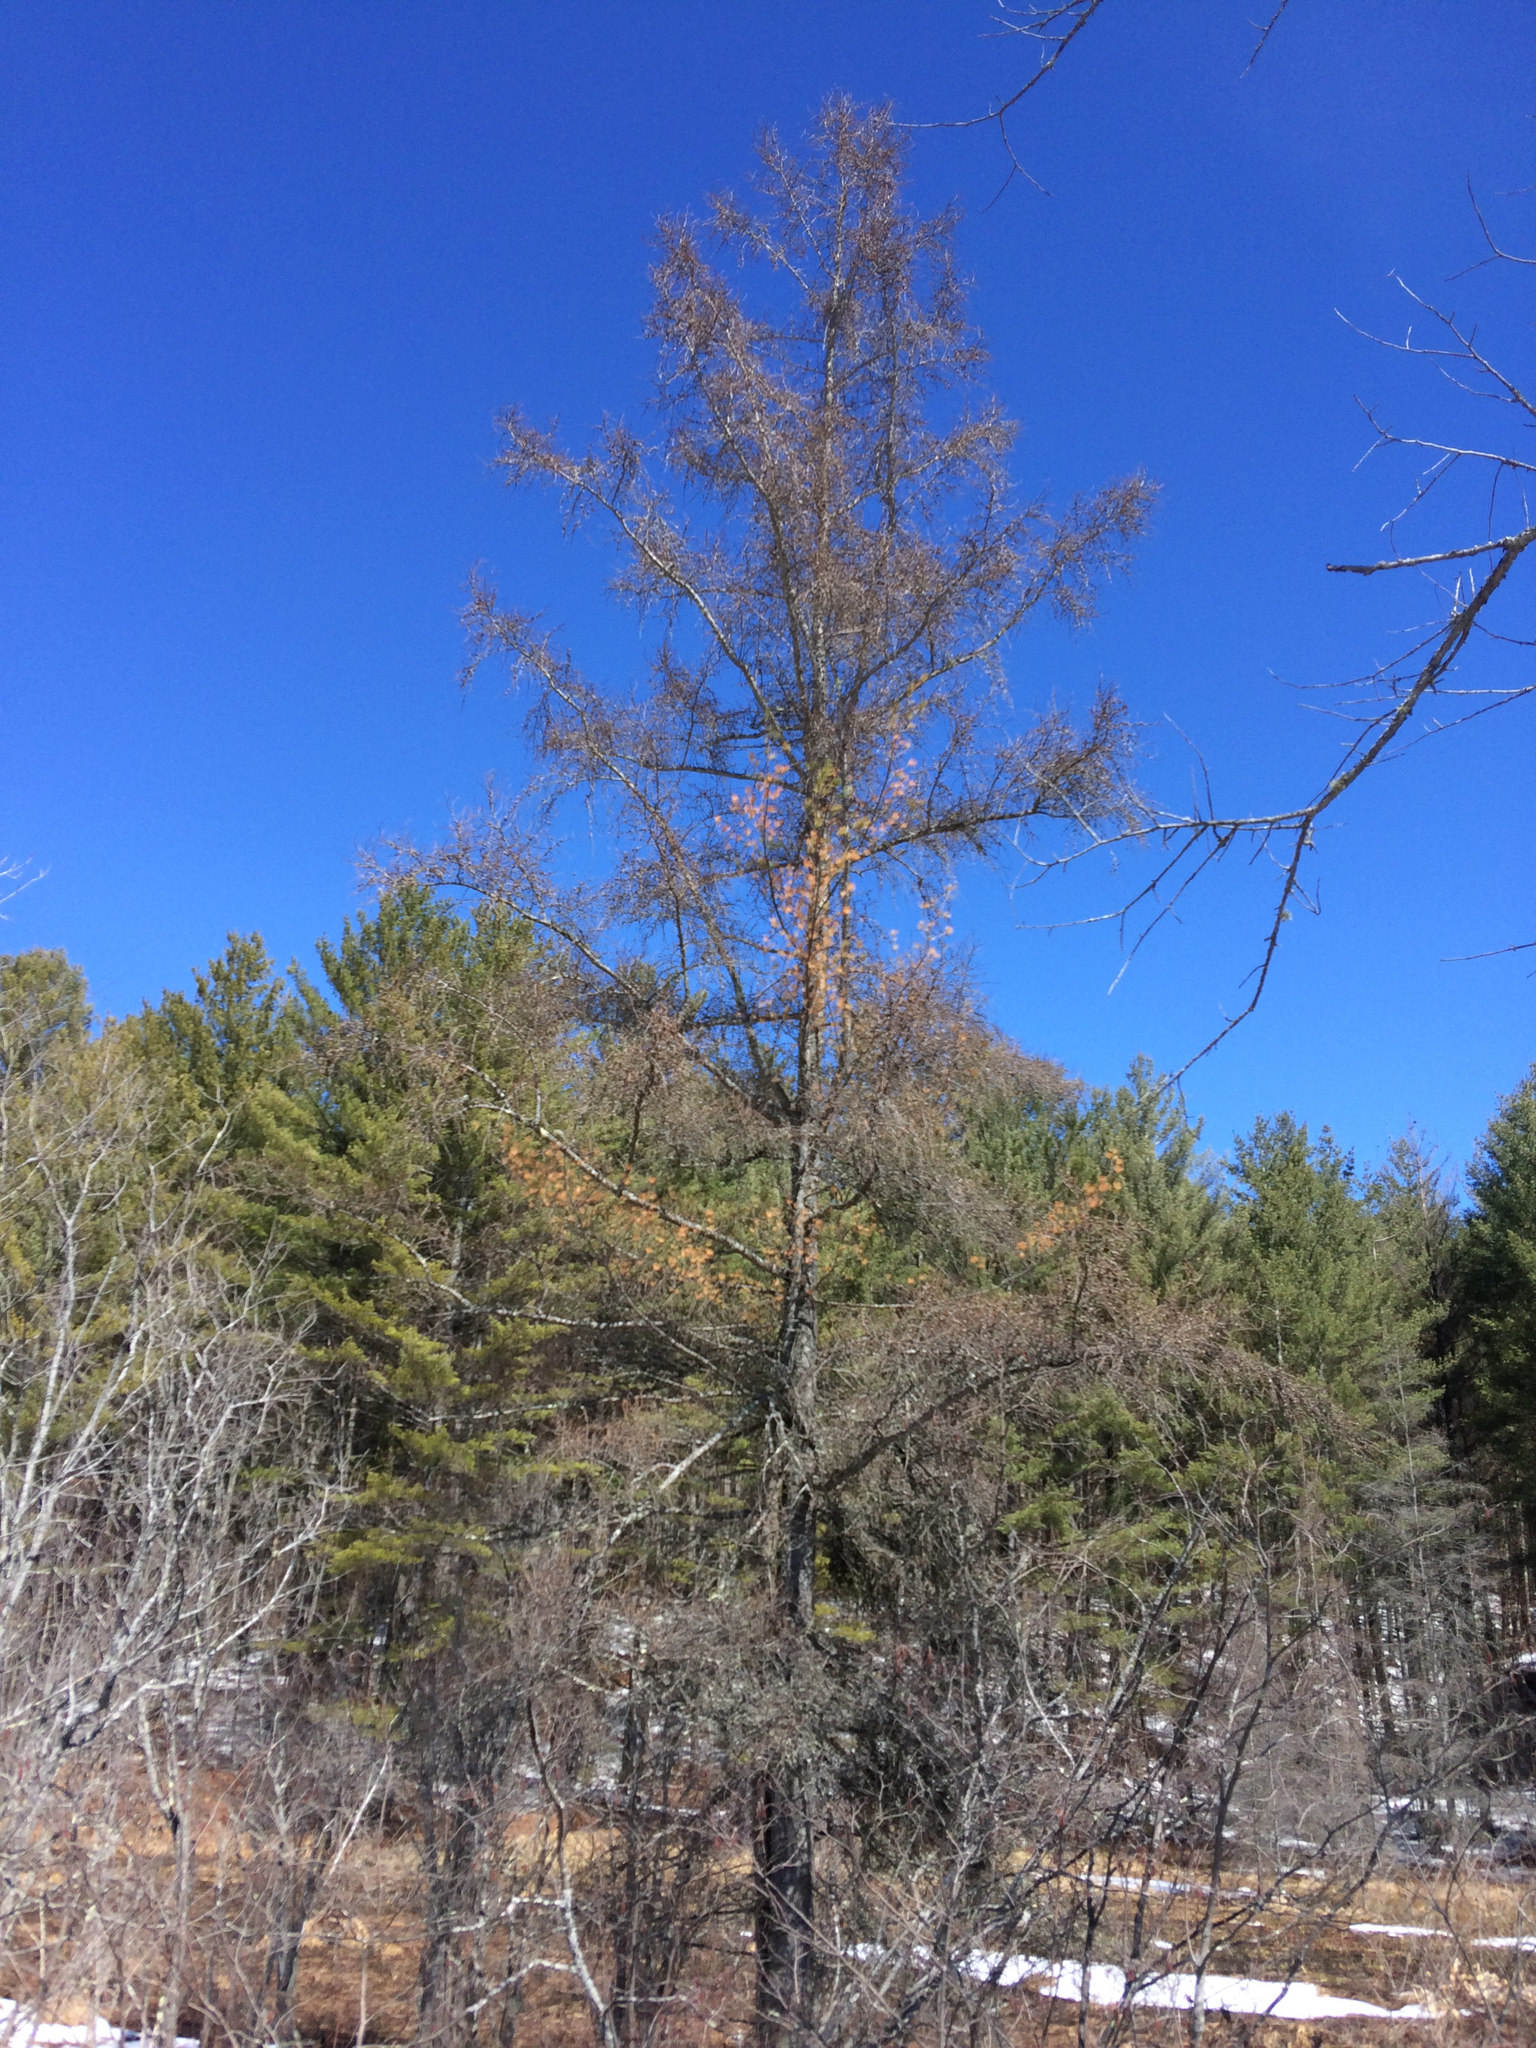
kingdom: Plantae
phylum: Tracheophyta
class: Pinopsida
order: Pinales
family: Pinaceae
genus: Larix
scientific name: Larix laricina
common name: American larch
